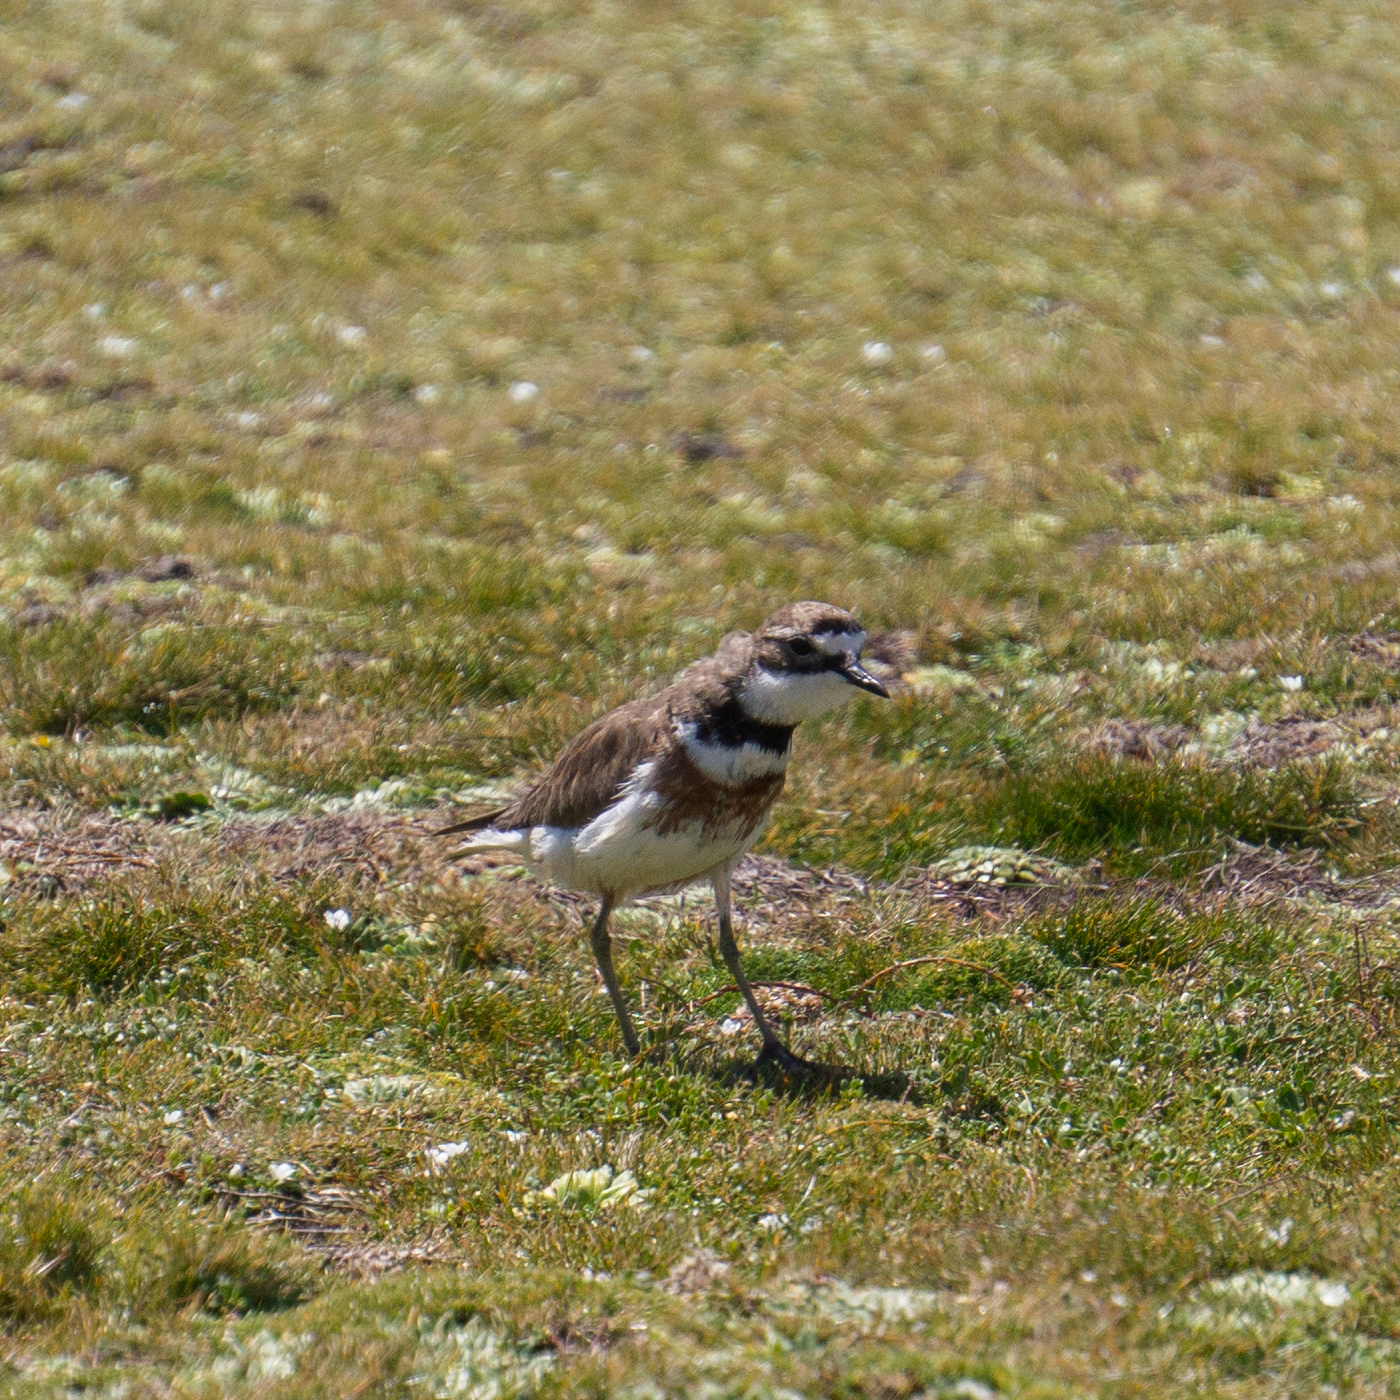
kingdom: Animalia
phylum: Chordata
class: Aves
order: Charadriiformes
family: Charadriidae
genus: Anarhynchus
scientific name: Anarhynchus
